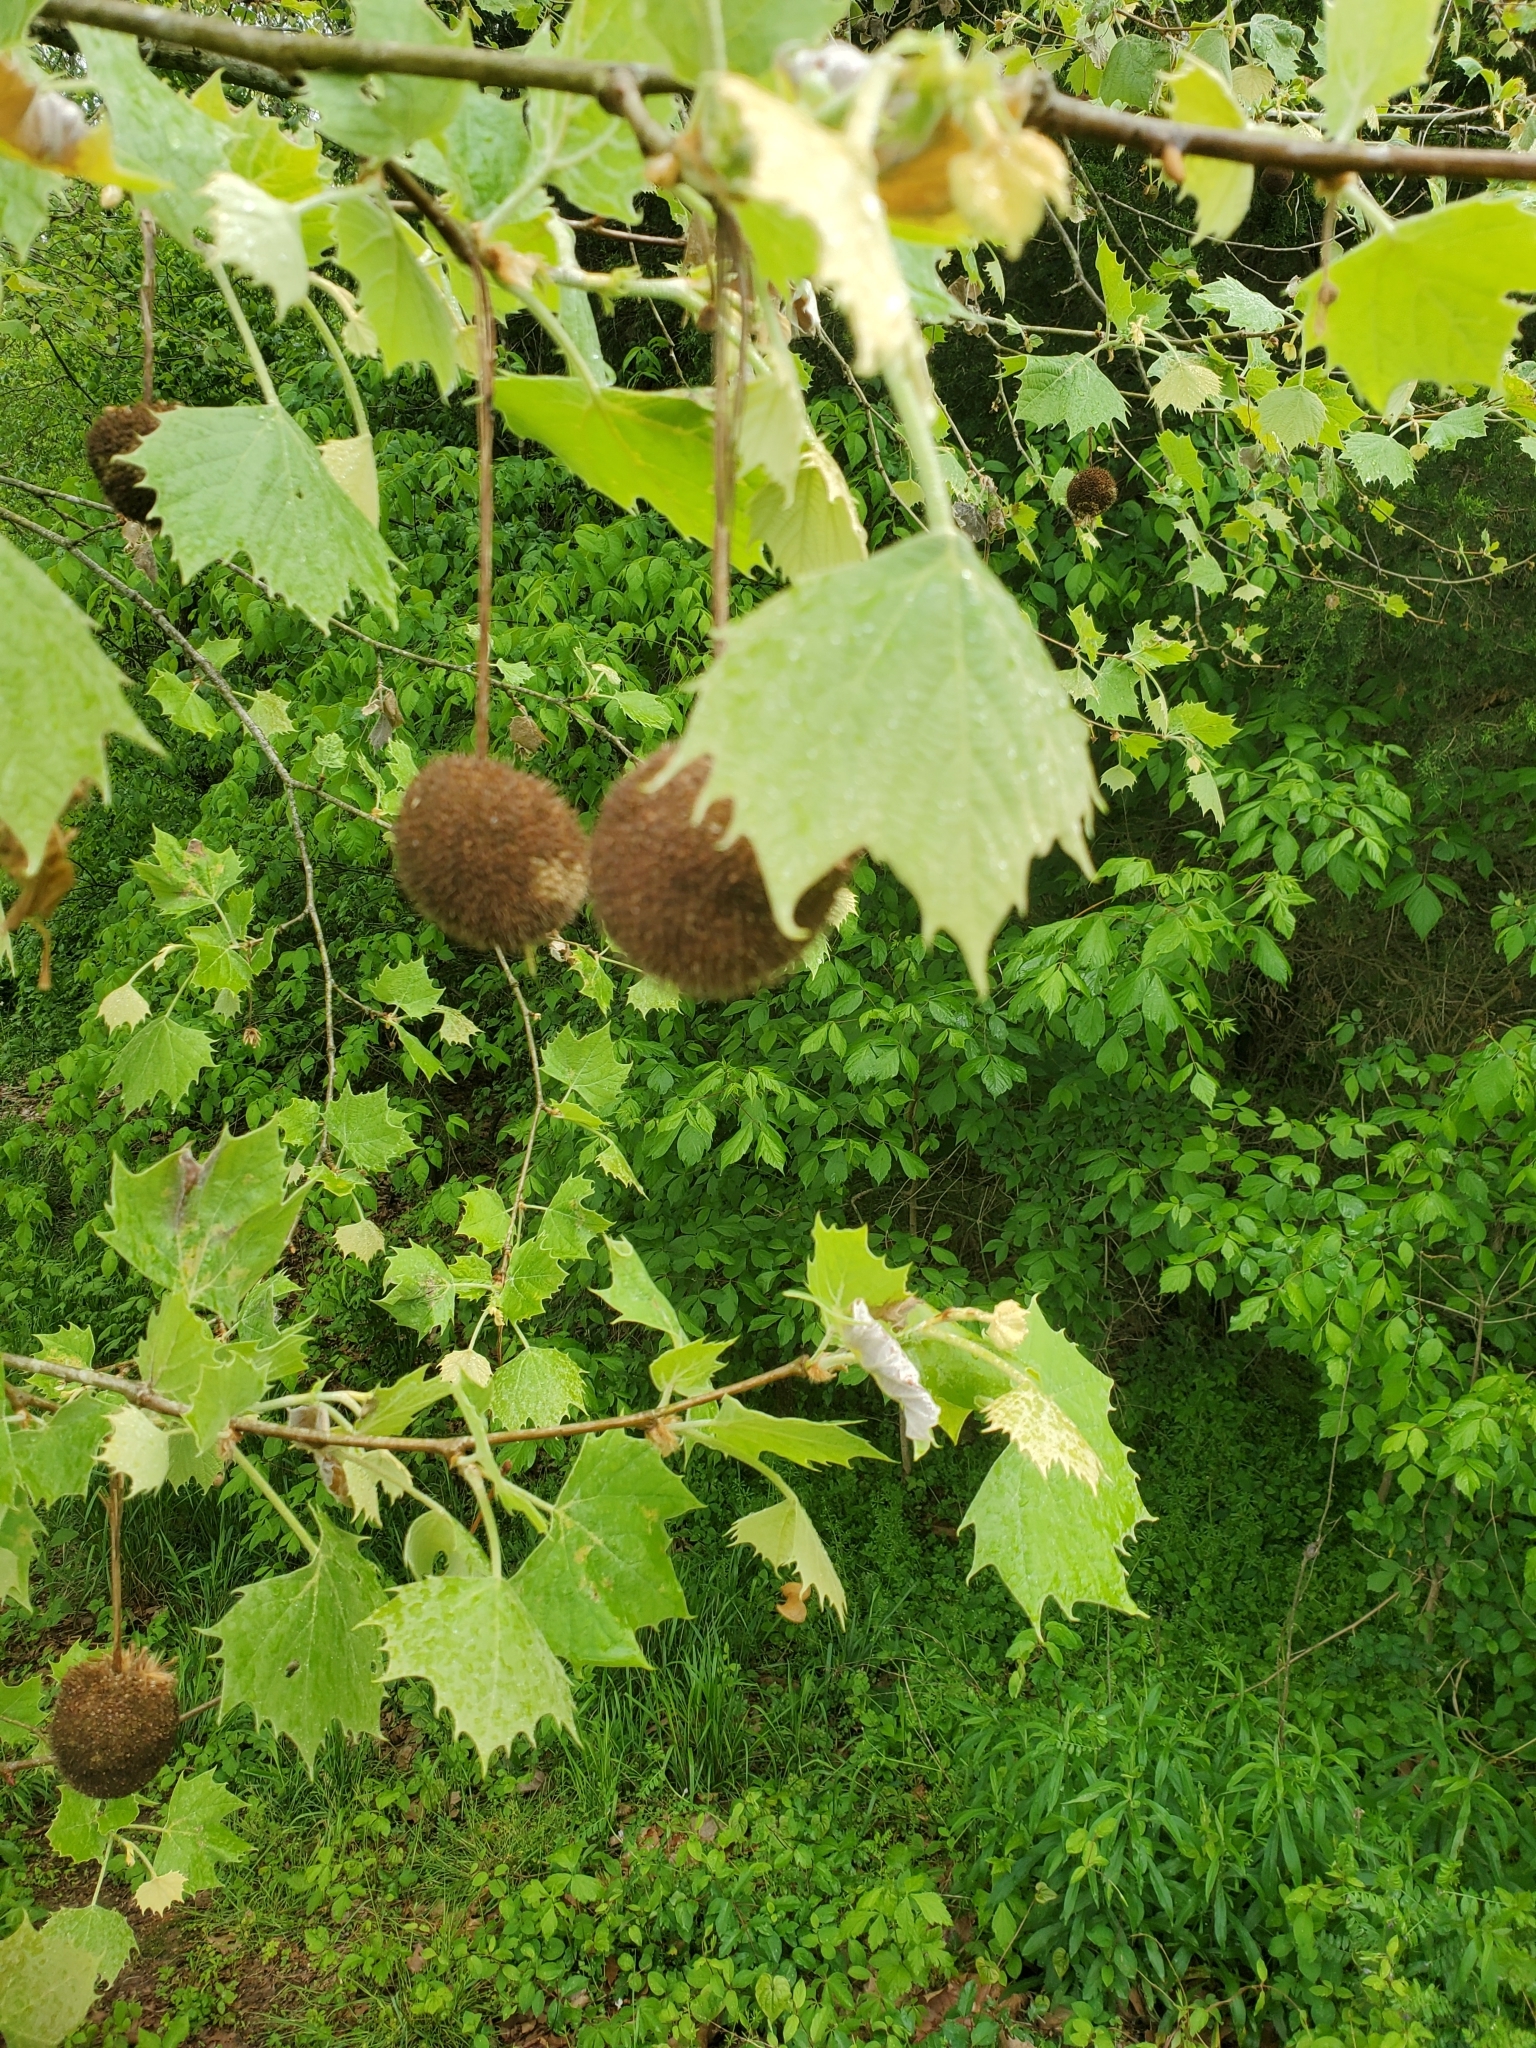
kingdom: Plantae
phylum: Tracheophyta
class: Magnoliopsida
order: Proteales
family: Platanaceae
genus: Platanus
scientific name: Platanus occidentalis
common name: American sycamore
